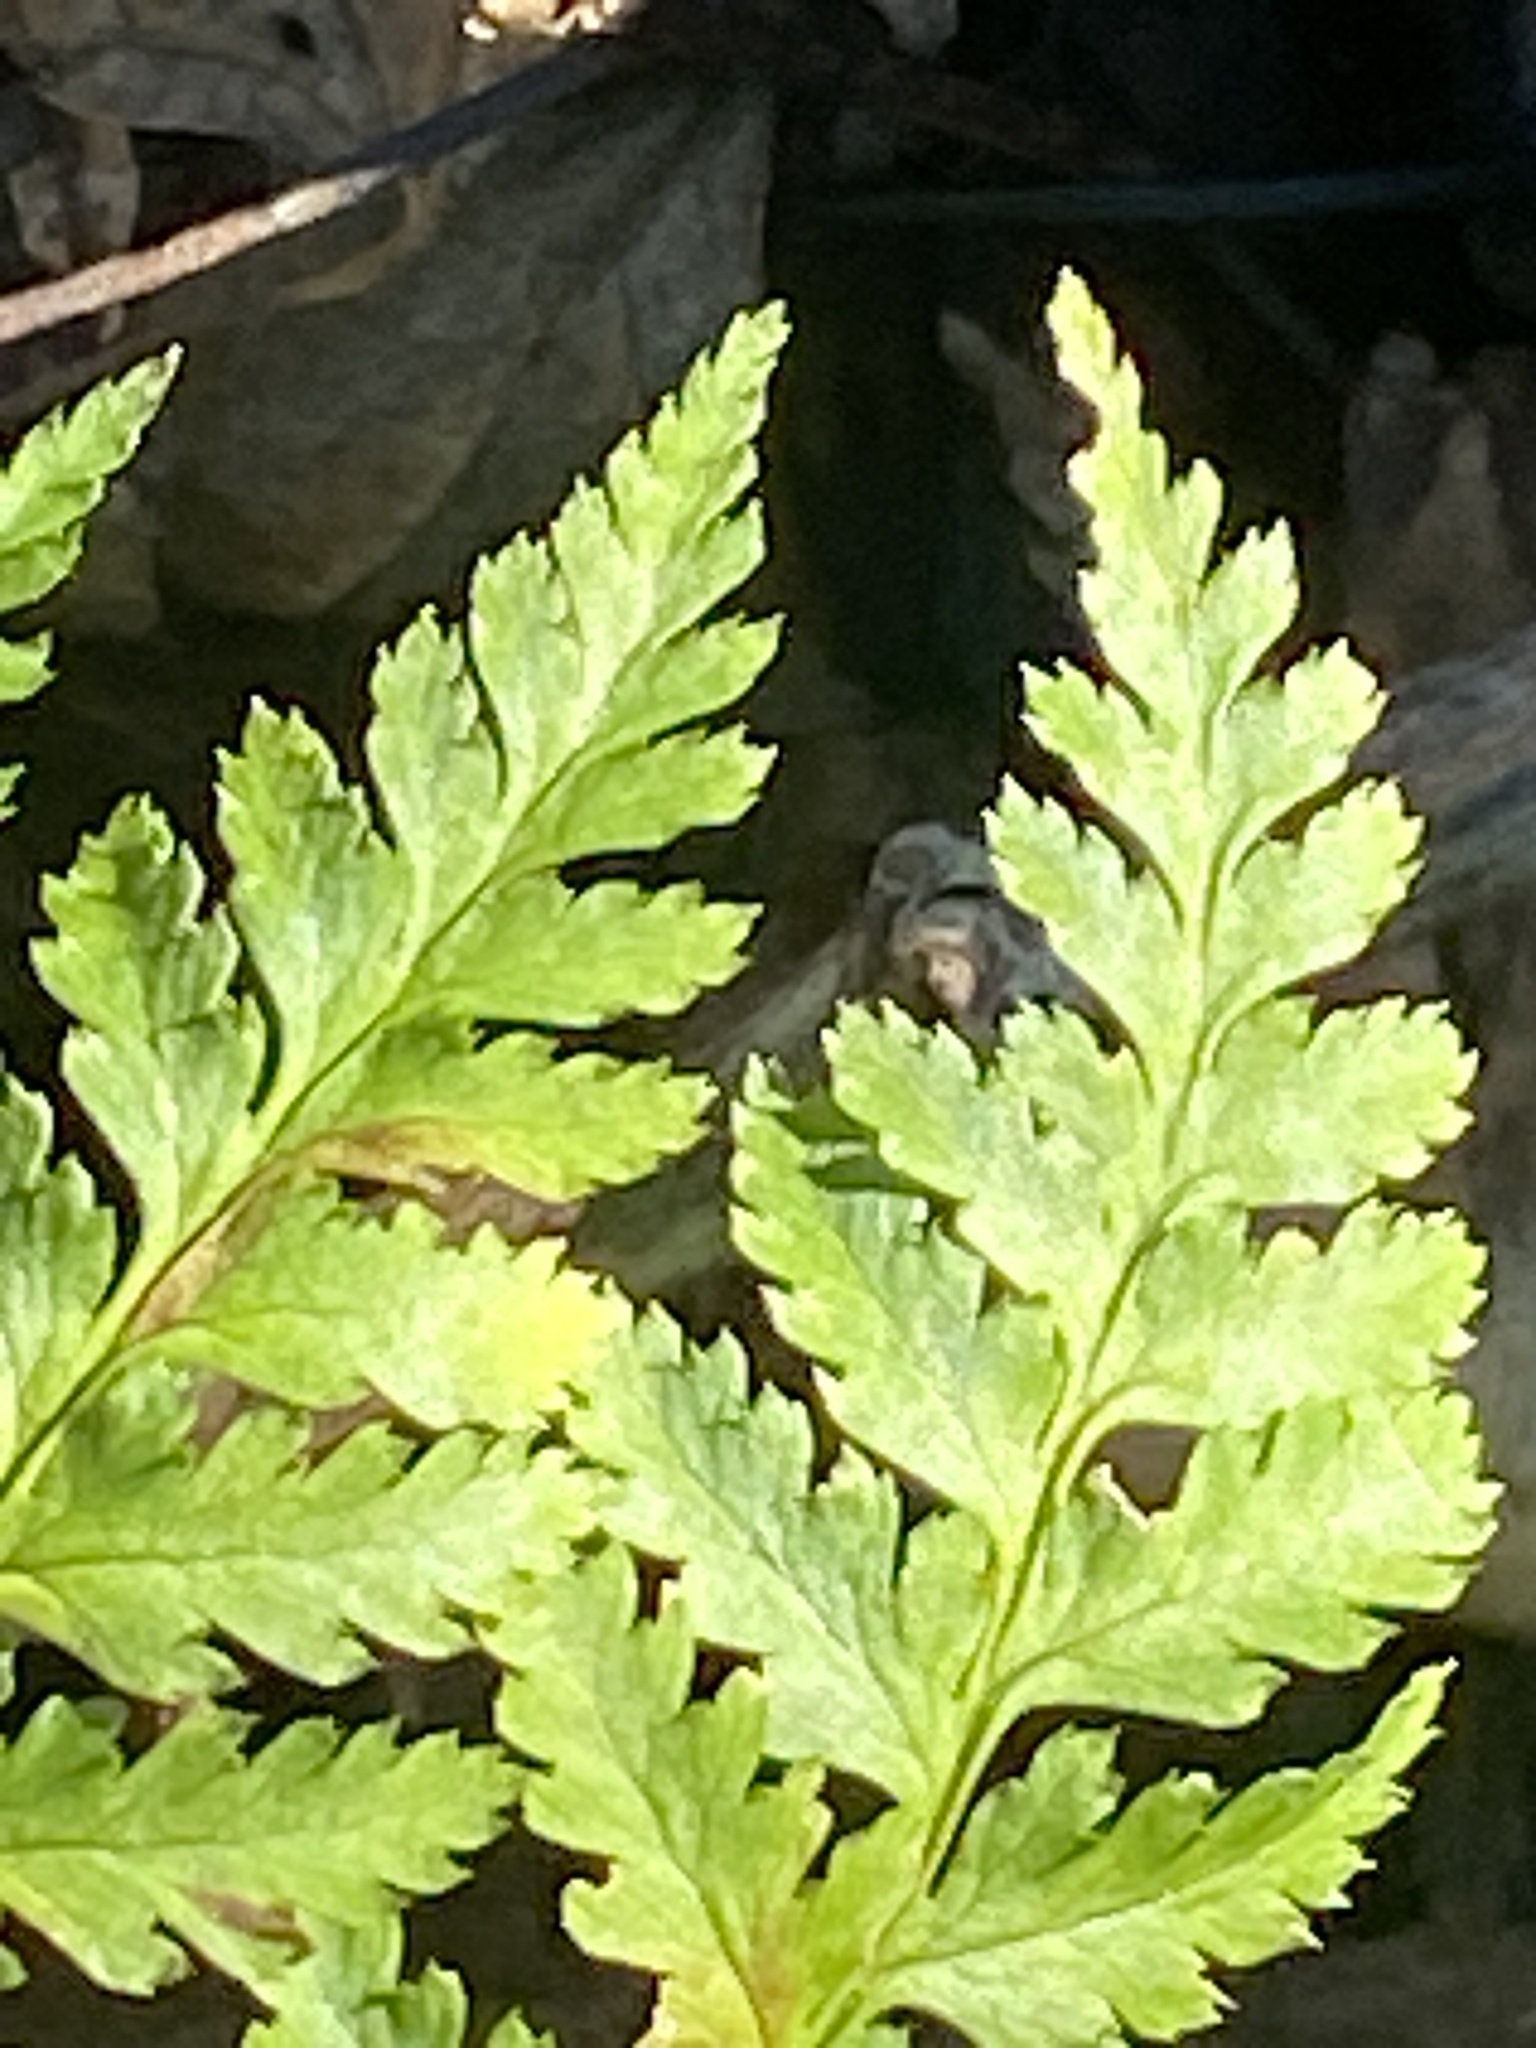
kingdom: Plantae
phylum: Tracheophyta
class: Polypodiopsida
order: Polypodiales
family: Dryopteridaceae
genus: Dryopteris
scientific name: Dryopteris intermedia
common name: Evergreen wood fern
